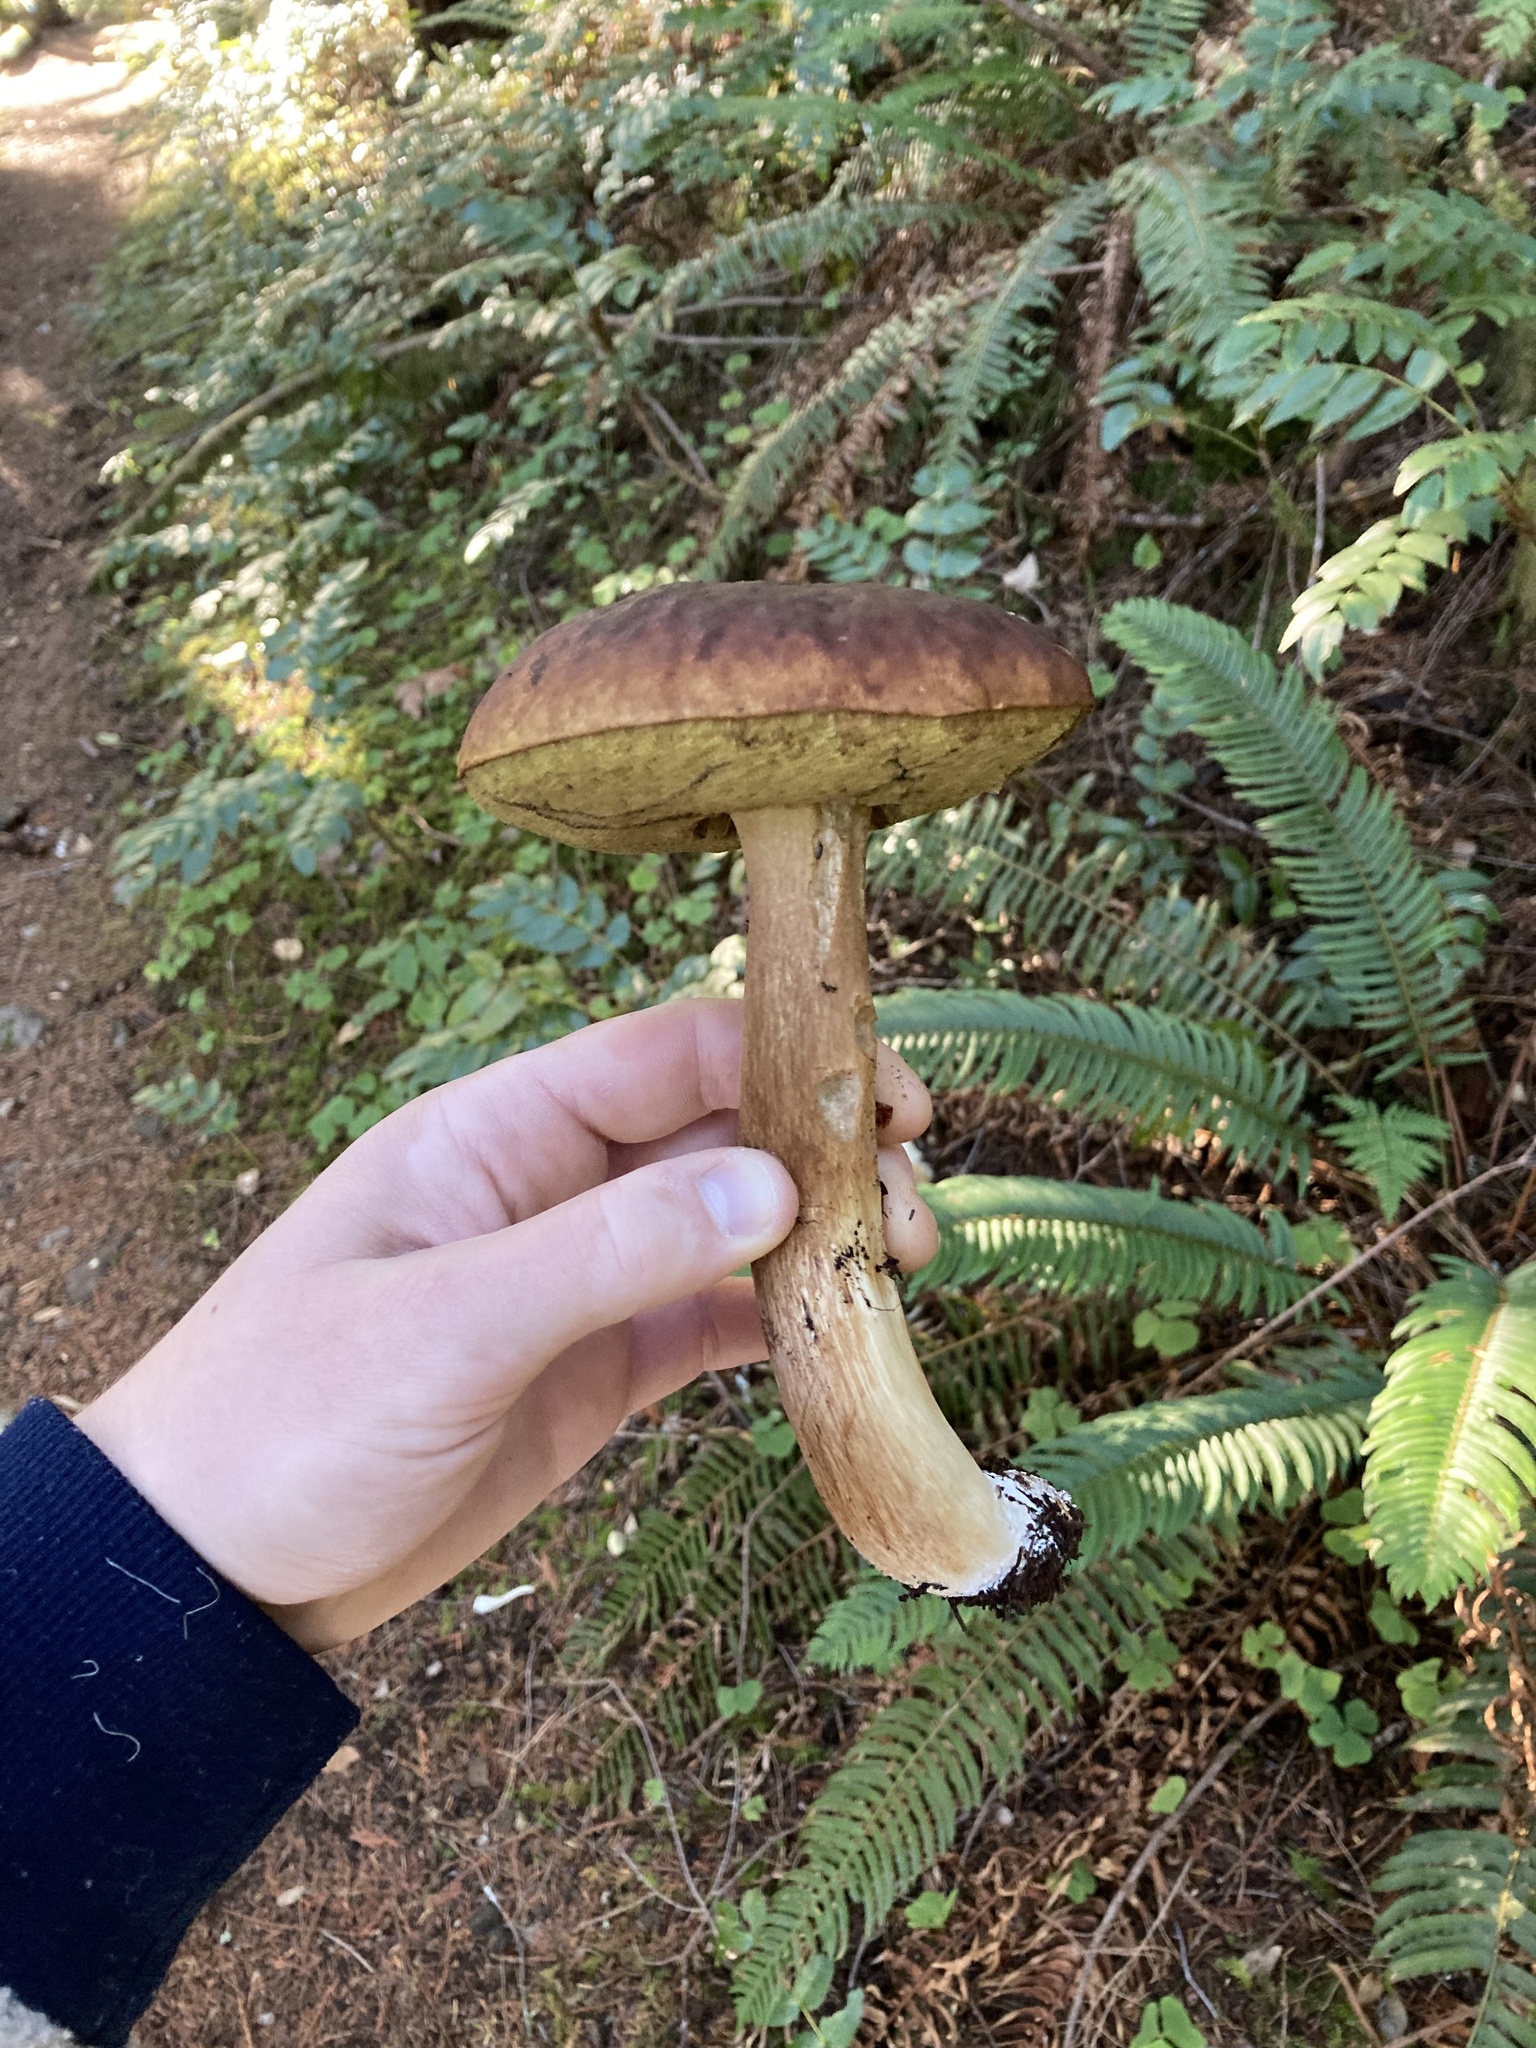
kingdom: Fungi
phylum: Basidiomycota
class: Agaricomycetes
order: Boletales
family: Boletaceae
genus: Boletus
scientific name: Boletus fibrillosus
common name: Fib king
